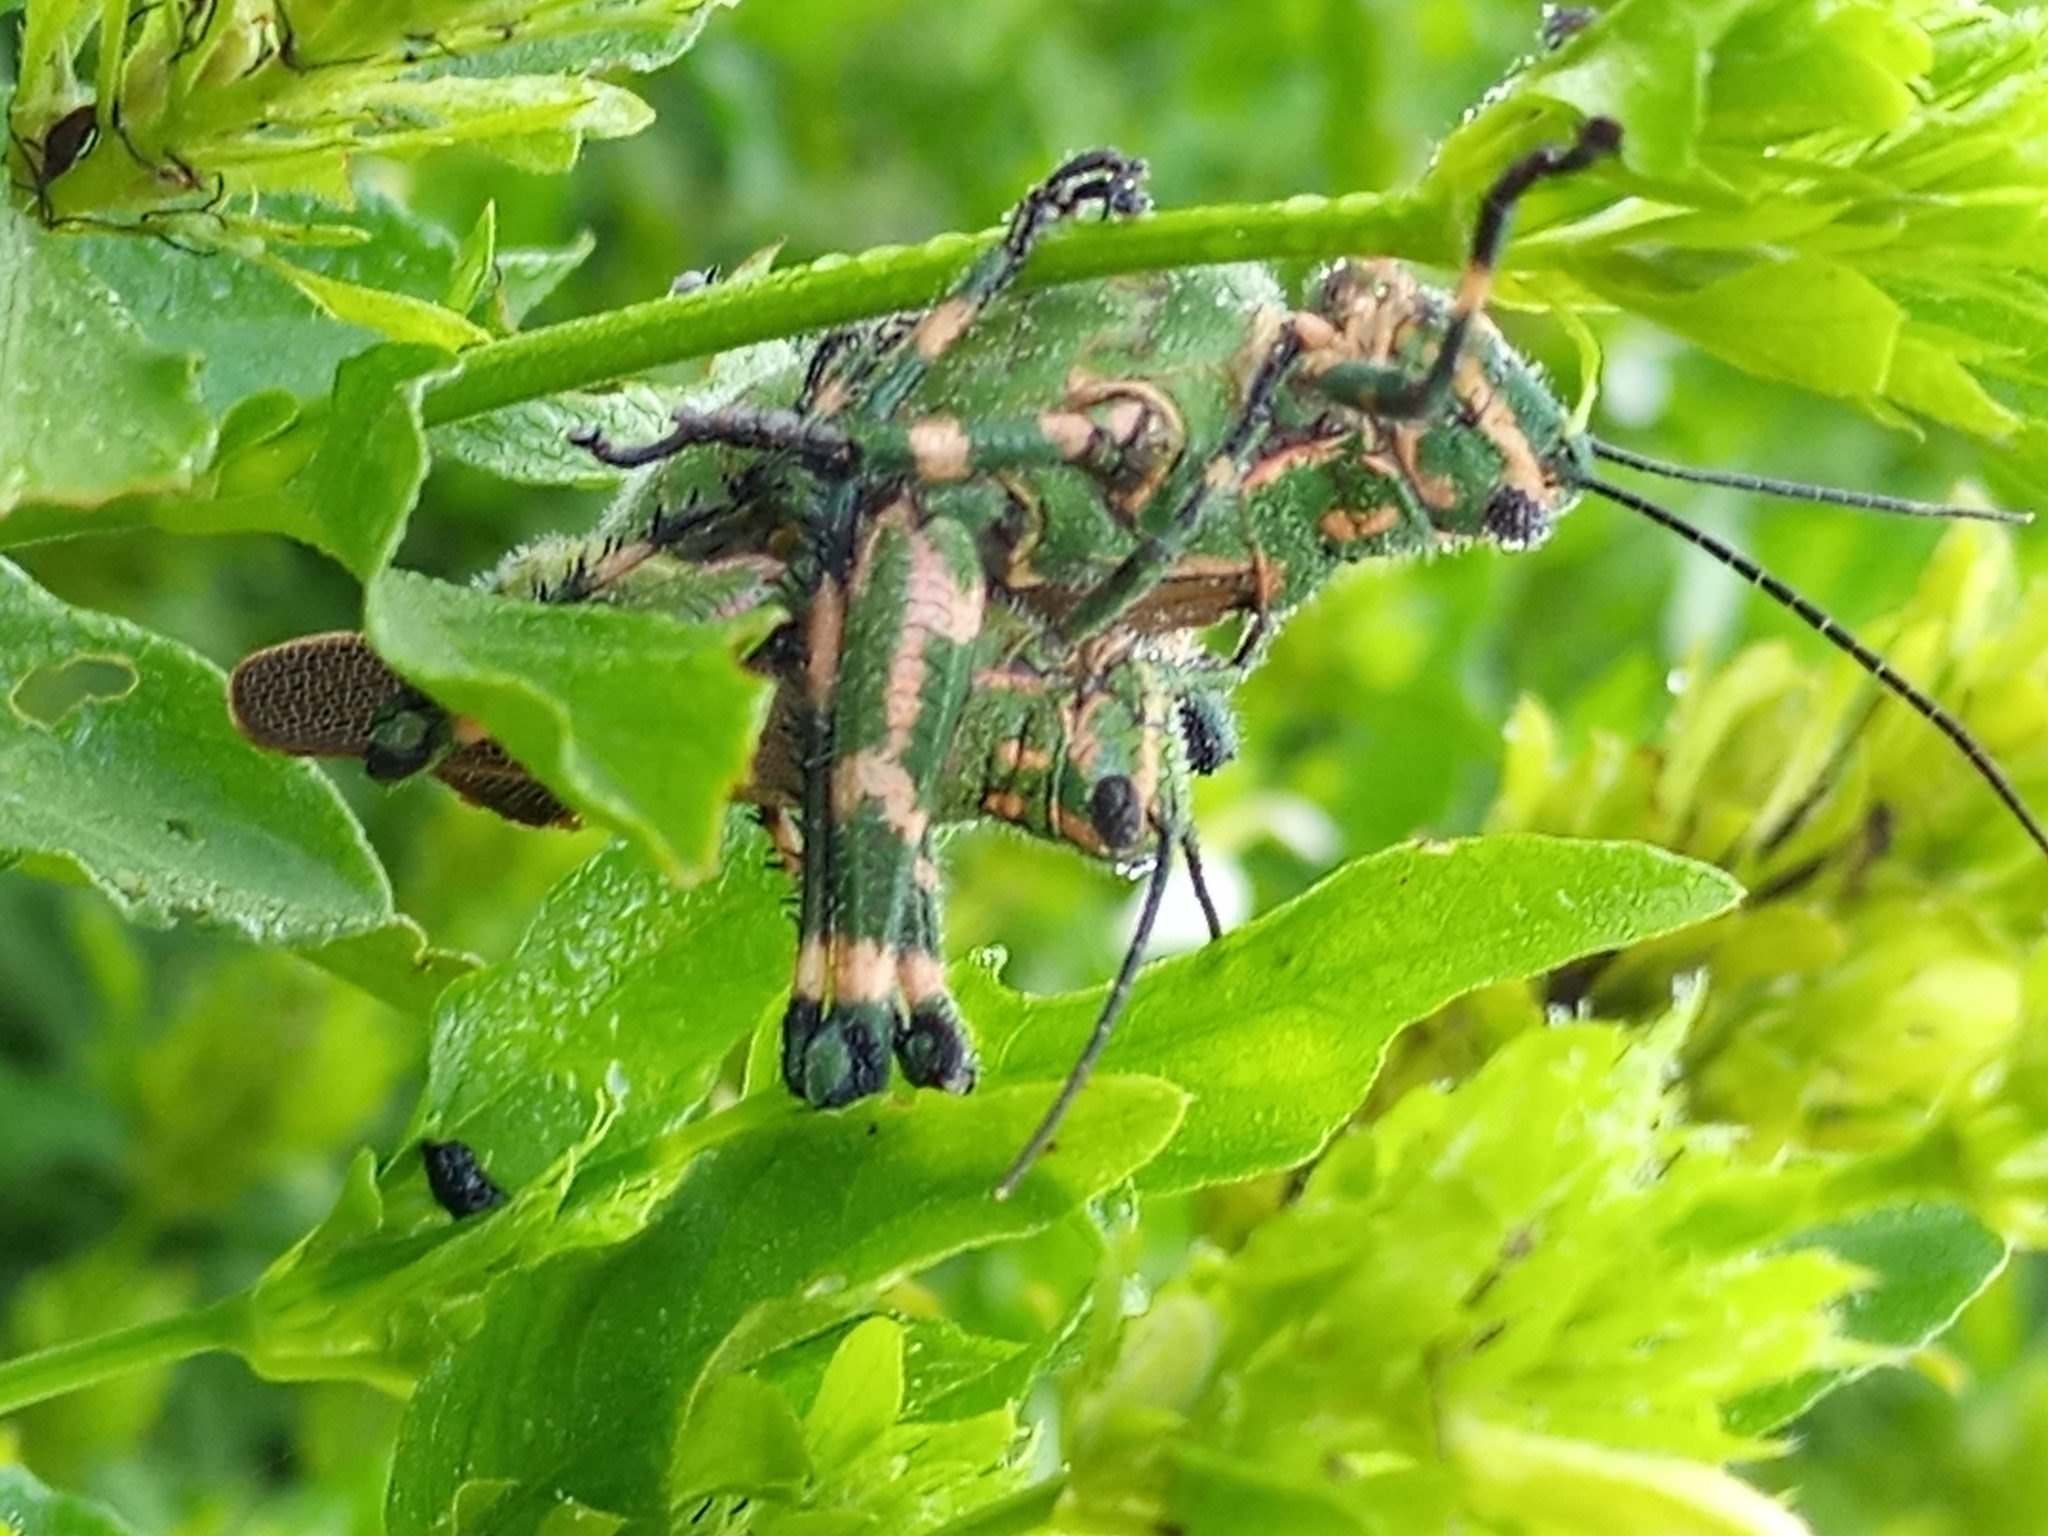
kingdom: Animalia
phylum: Arthropoda
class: Insecta
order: Orthoptera
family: Romaleidae
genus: Chromacris
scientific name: Chromacris speciosa
